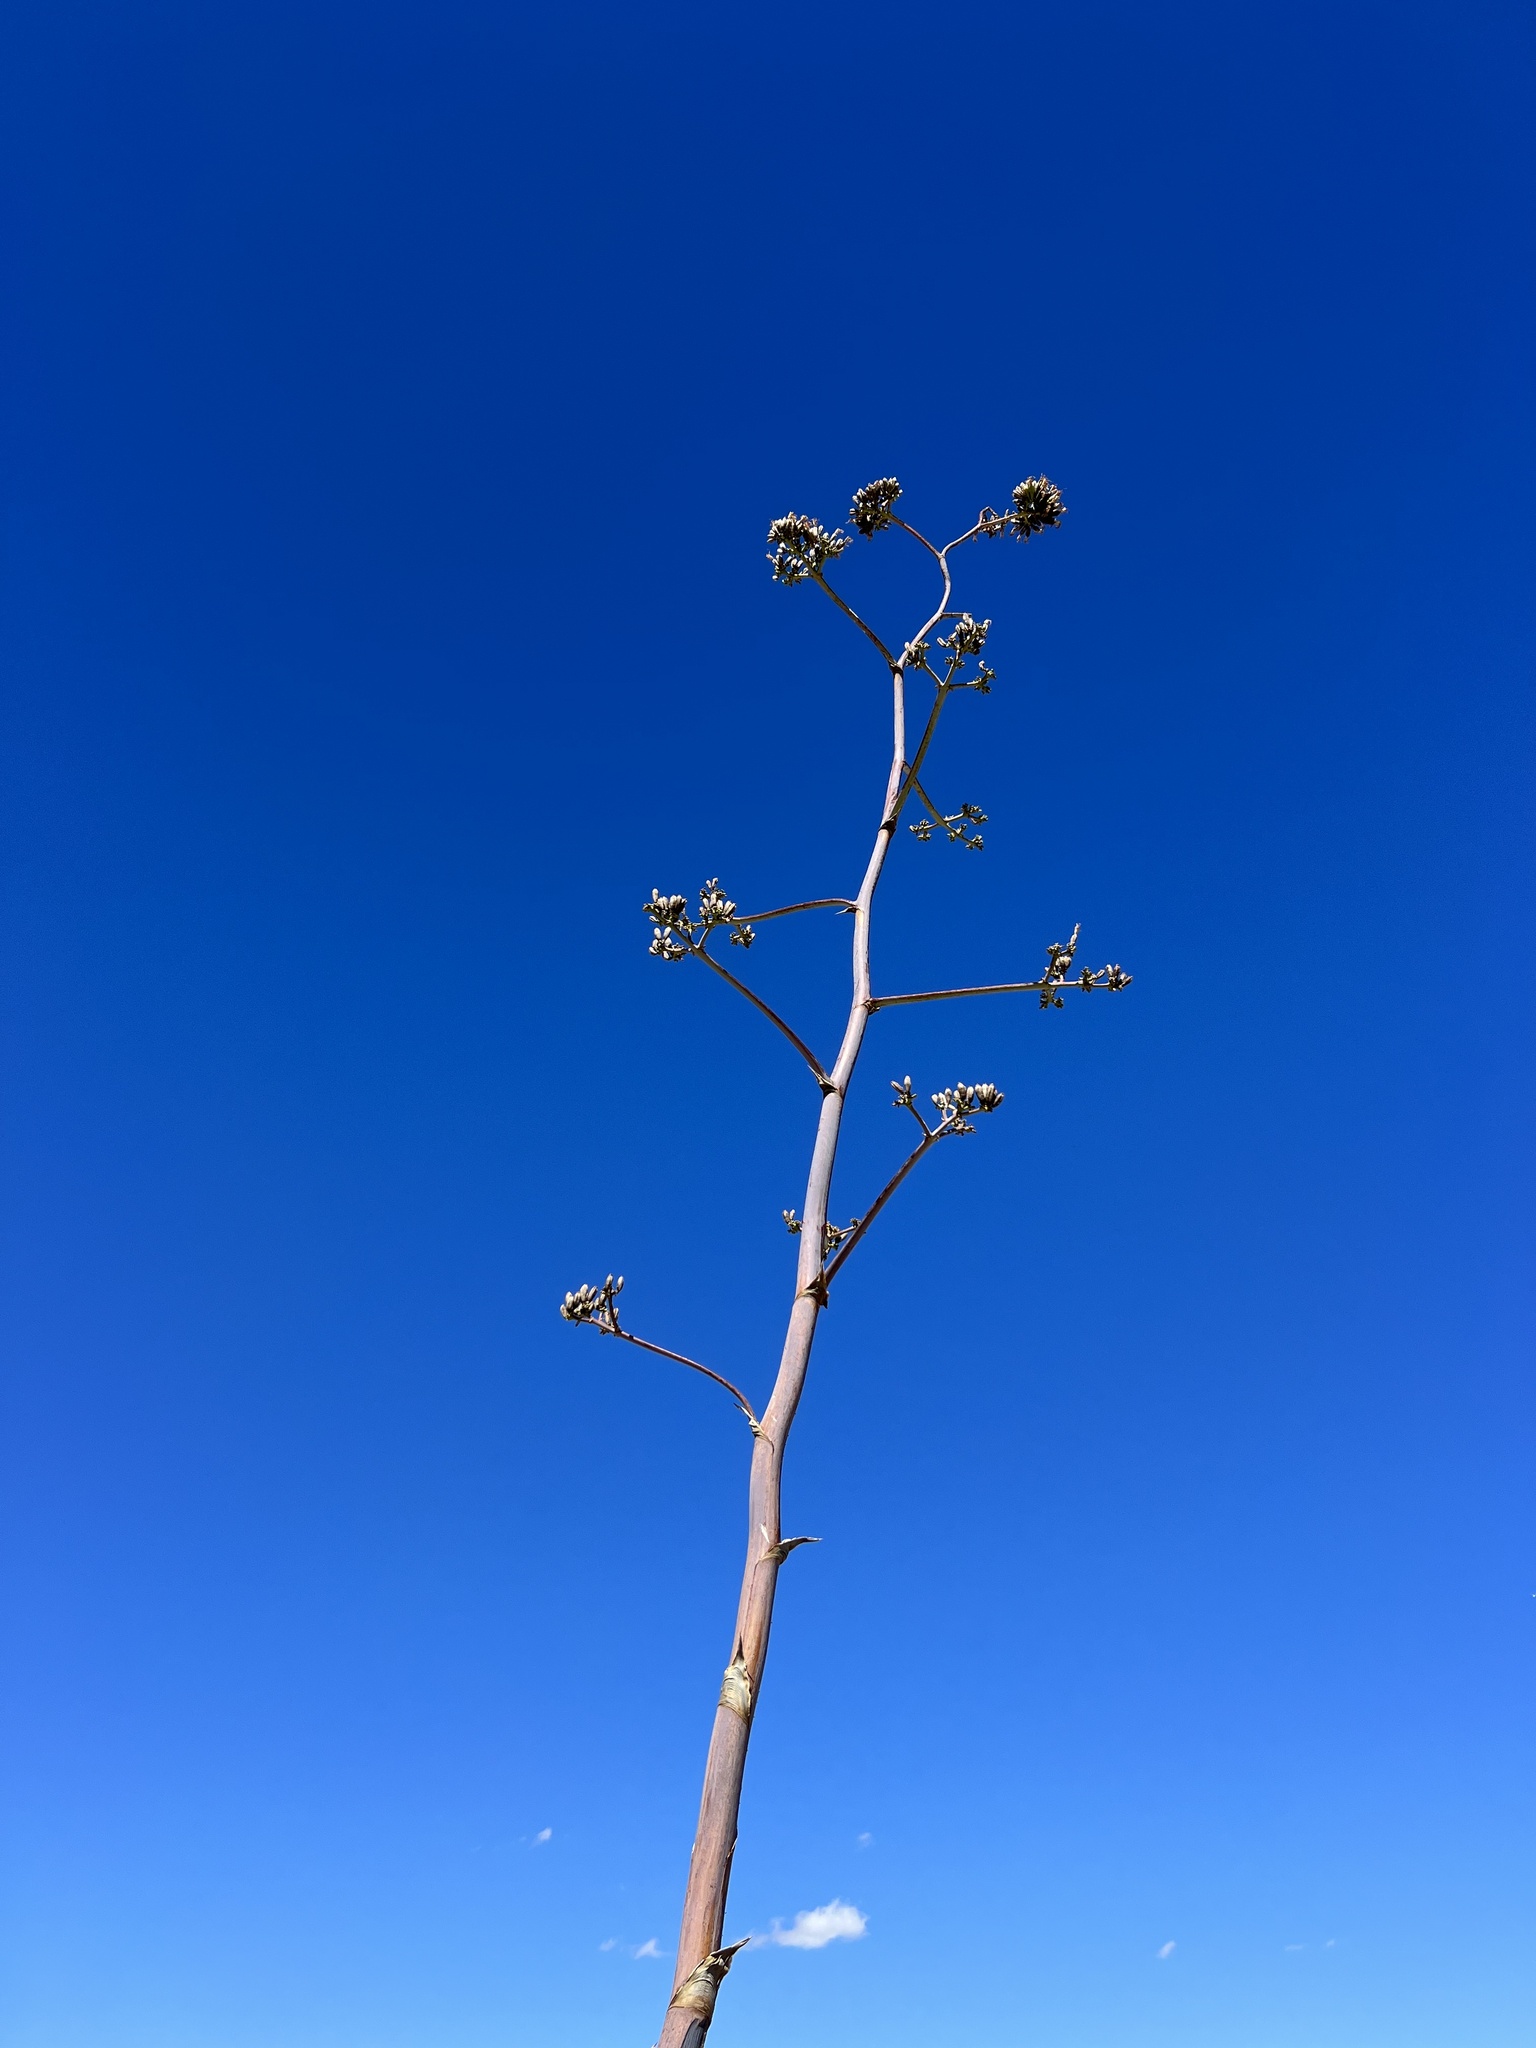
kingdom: Plantae
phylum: Tracheophyta
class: Liliopsida
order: Asparagales
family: Asparagaceae
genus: Agave
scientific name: Agave palmeri
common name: Palmer agave
